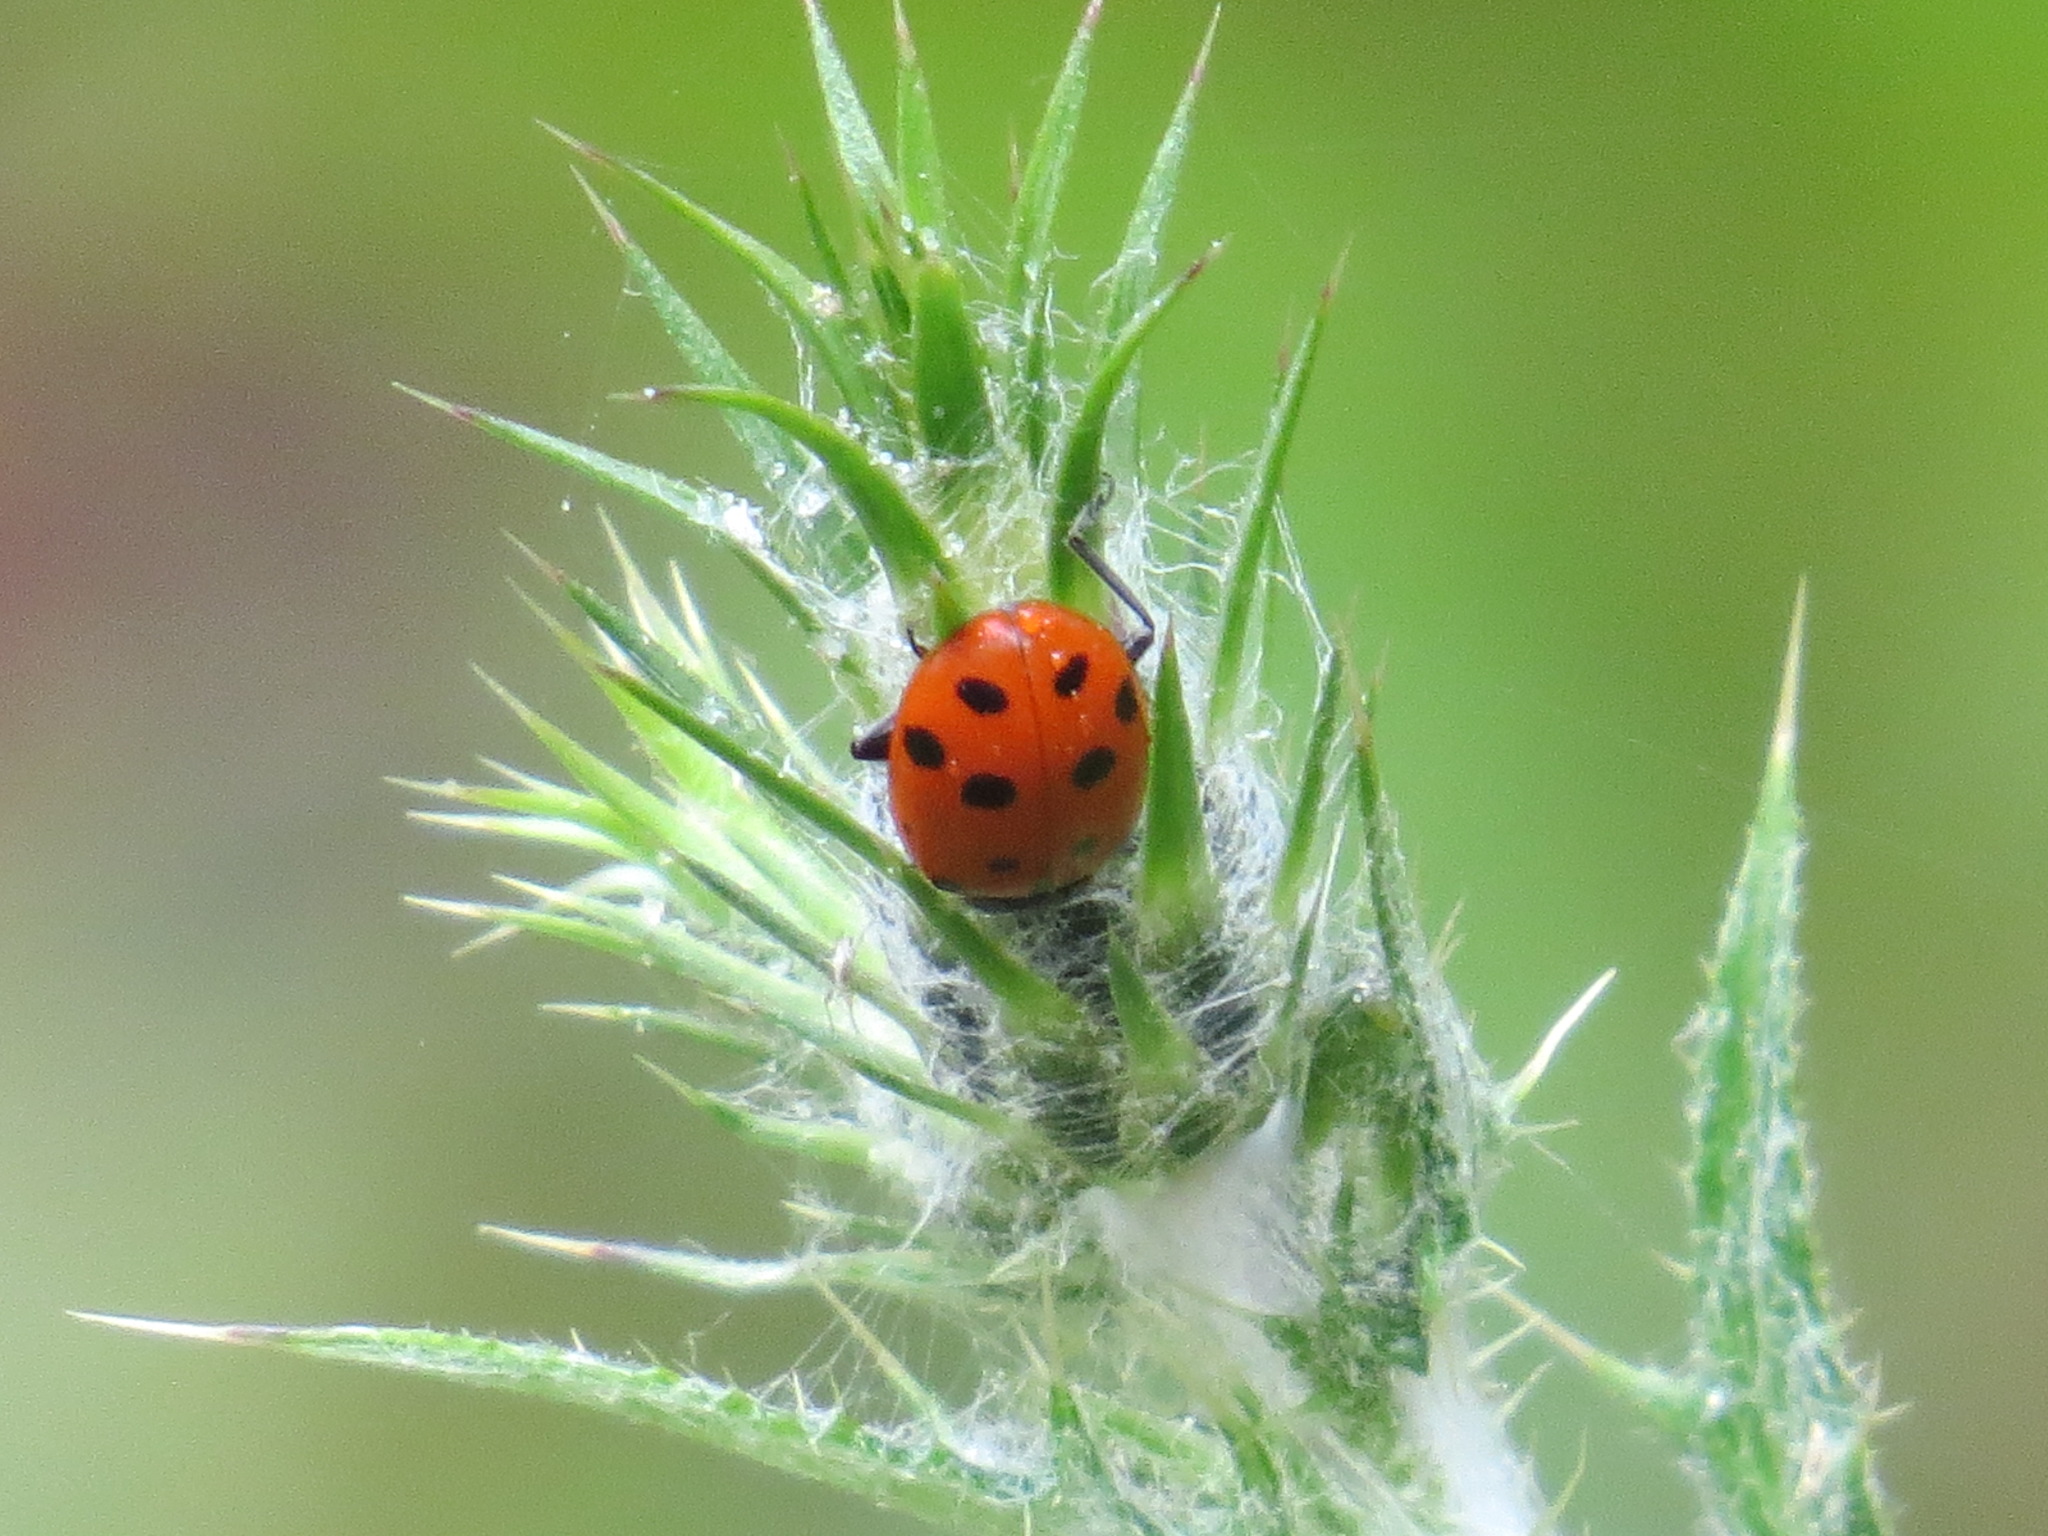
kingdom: Animalia
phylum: Arthropoda
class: Insecta
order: Coleoptera
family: Coccinellidae
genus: Hippodamia
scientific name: Hippodamia convergens
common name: Convergent lady beetle
